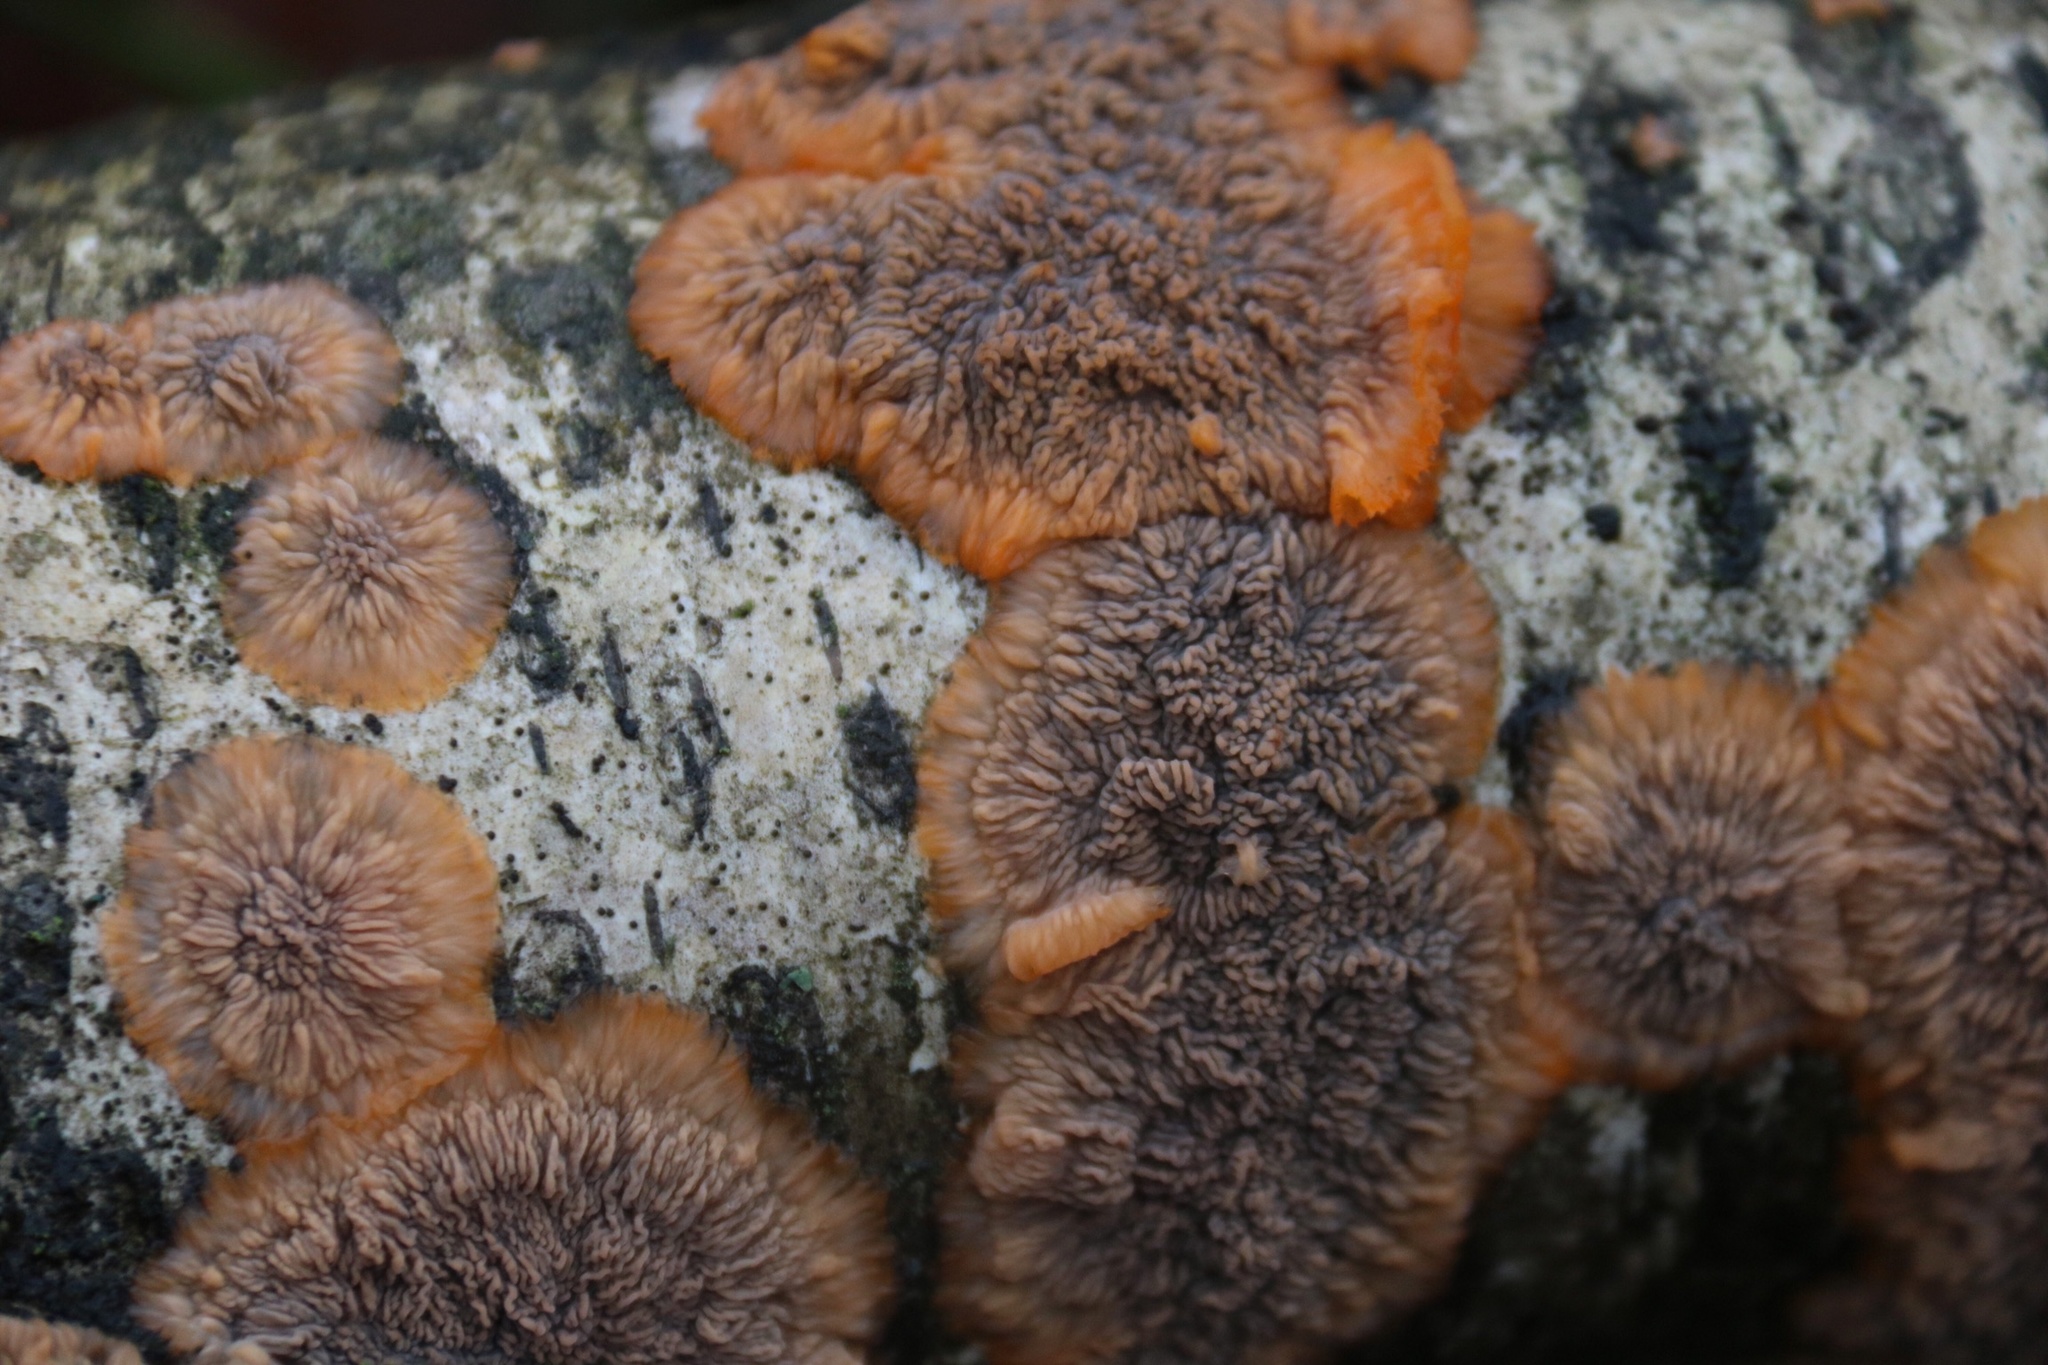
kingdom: Fungi
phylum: Basidiomycota
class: Agaricomycetes
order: Polyporales
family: Meruliaceae
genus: Phlebia
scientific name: Phlebia radiata
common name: Wrinkled crust
